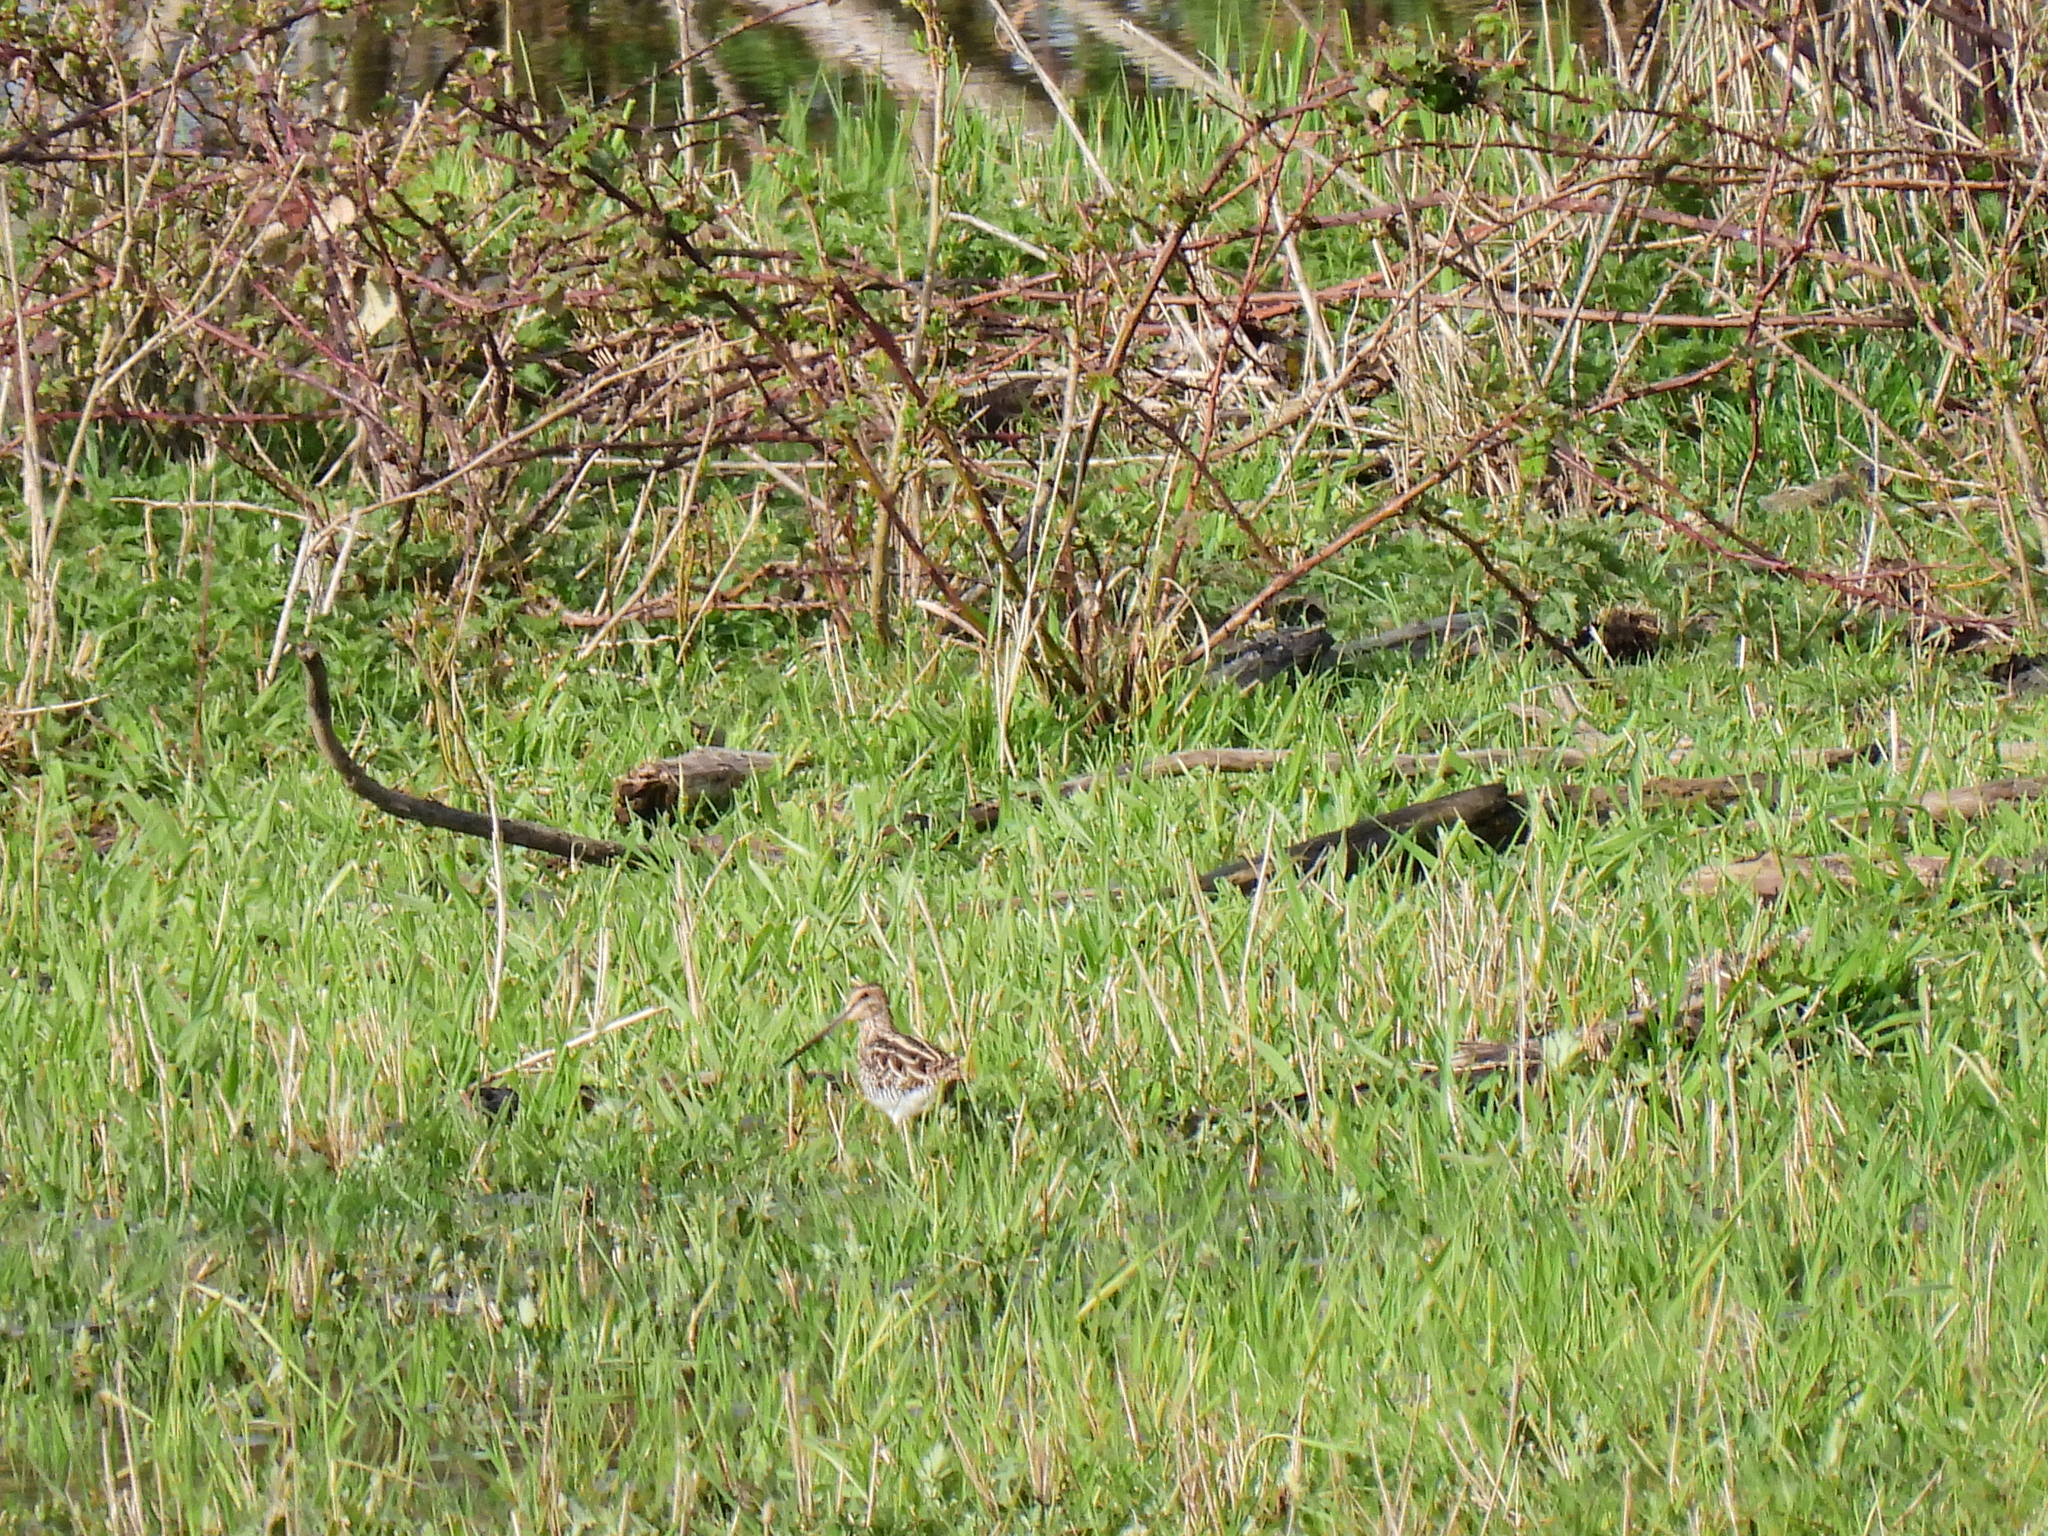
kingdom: Animalia
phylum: Chordata
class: Aves
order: Charadriiformes
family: Scolopacidae
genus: Gallinago
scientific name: Gallinago gallinago
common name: Common snipe
